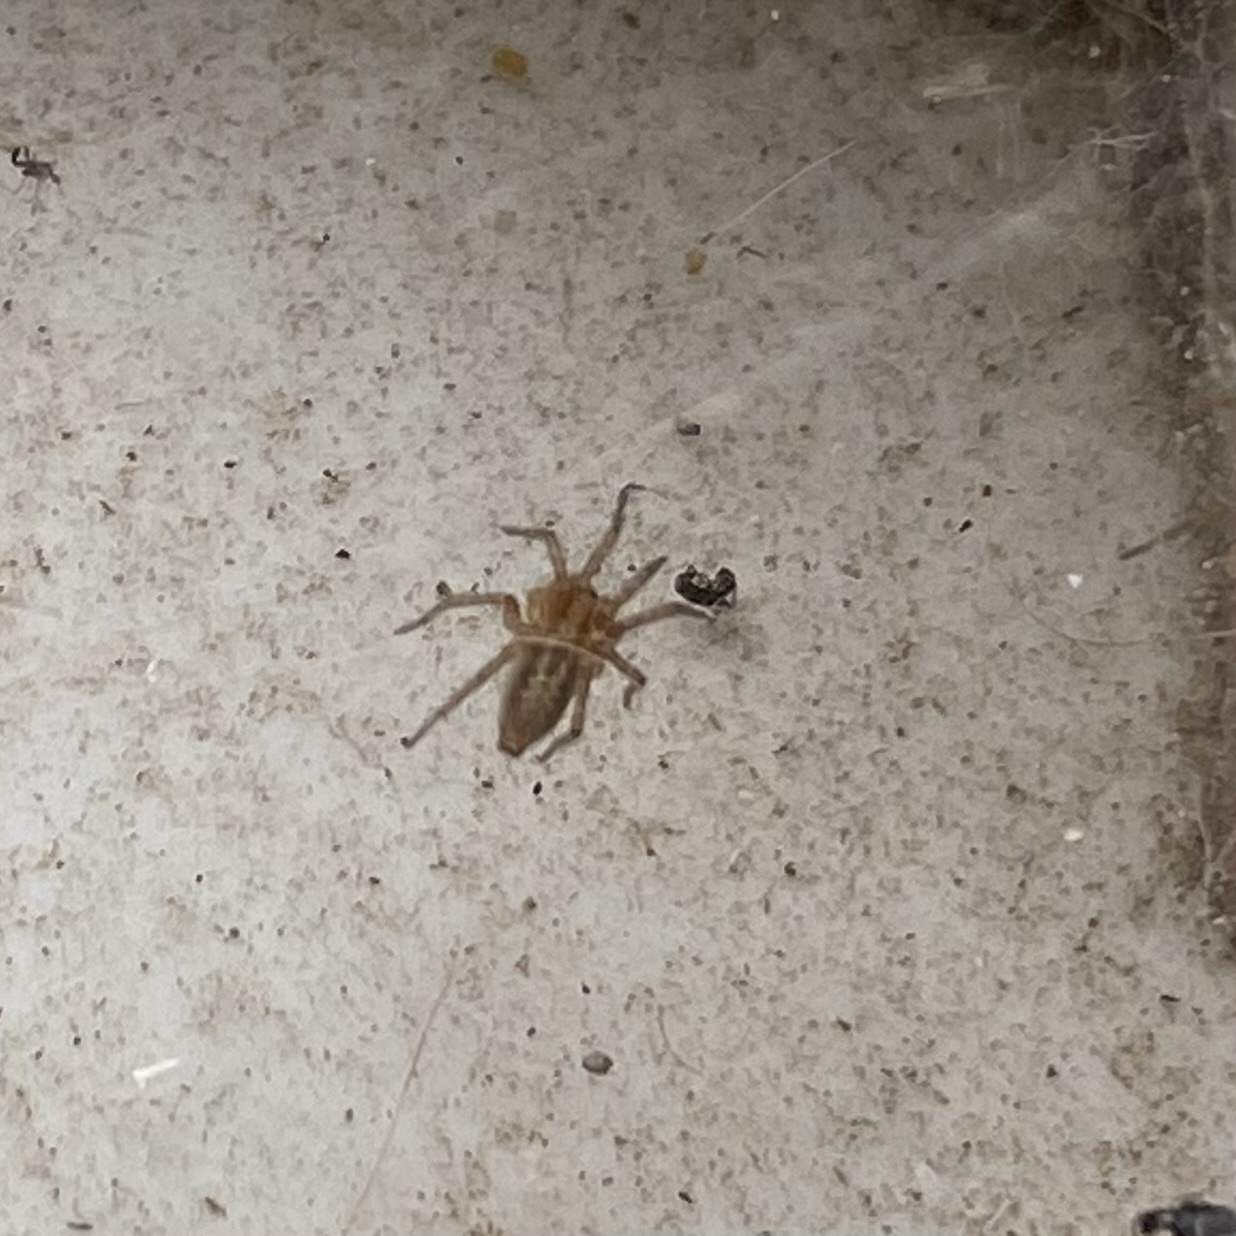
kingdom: Animalia
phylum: Arthropoda
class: Arachnida
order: Araneae
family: Agelenidae
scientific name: Agelenidae
